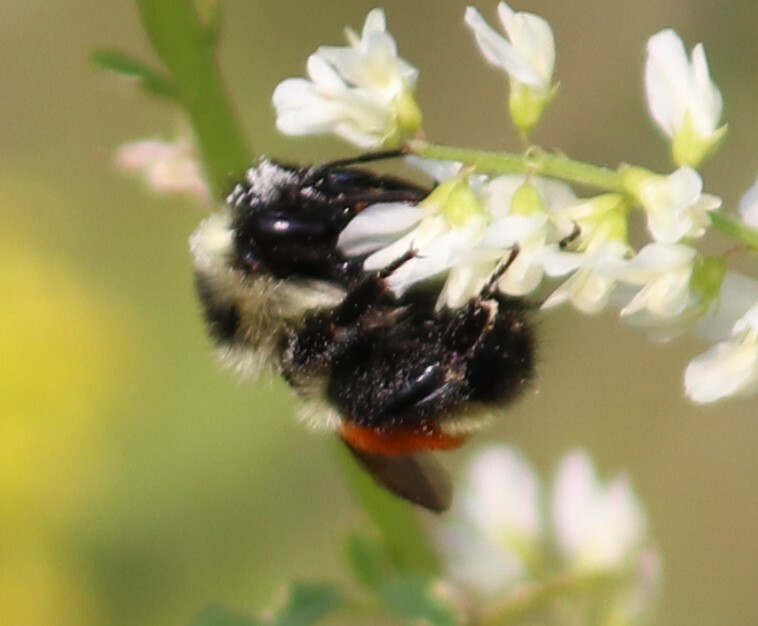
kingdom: Animalia
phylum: Arthropoda
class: Insecta
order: Hymenoptera
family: Apidae
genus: Bombus
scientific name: Bombus ternarius
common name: Tri-colored bumble bee
